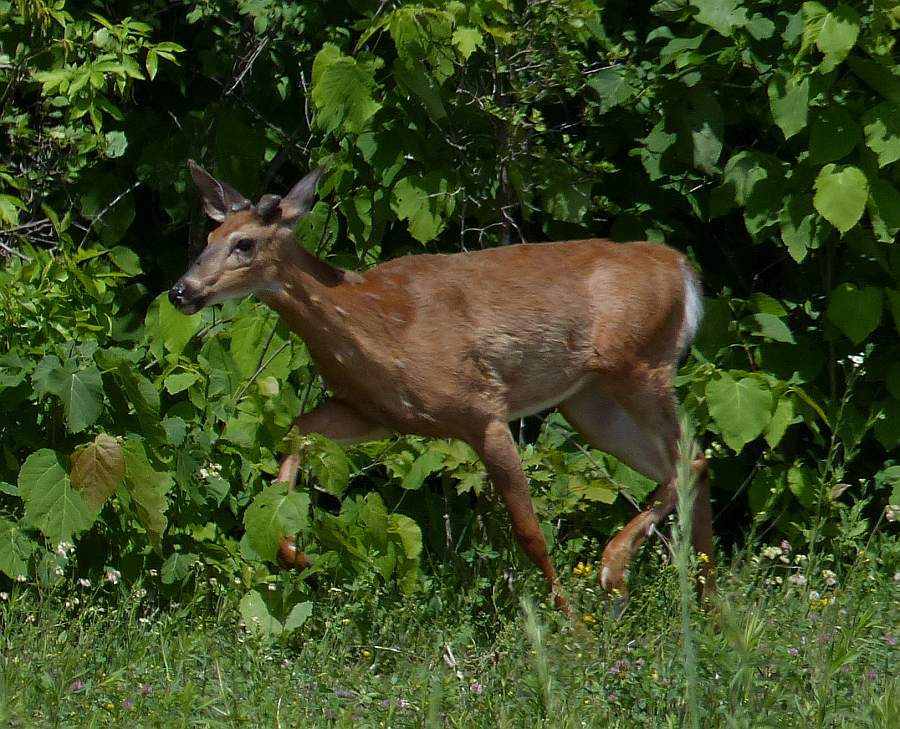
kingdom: Animalia
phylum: Chordata
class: Mammalia
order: Artiodactyla
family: Cervidae
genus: Odocoileus
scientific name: Odocoileus virginianus
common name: White-tailed deer
